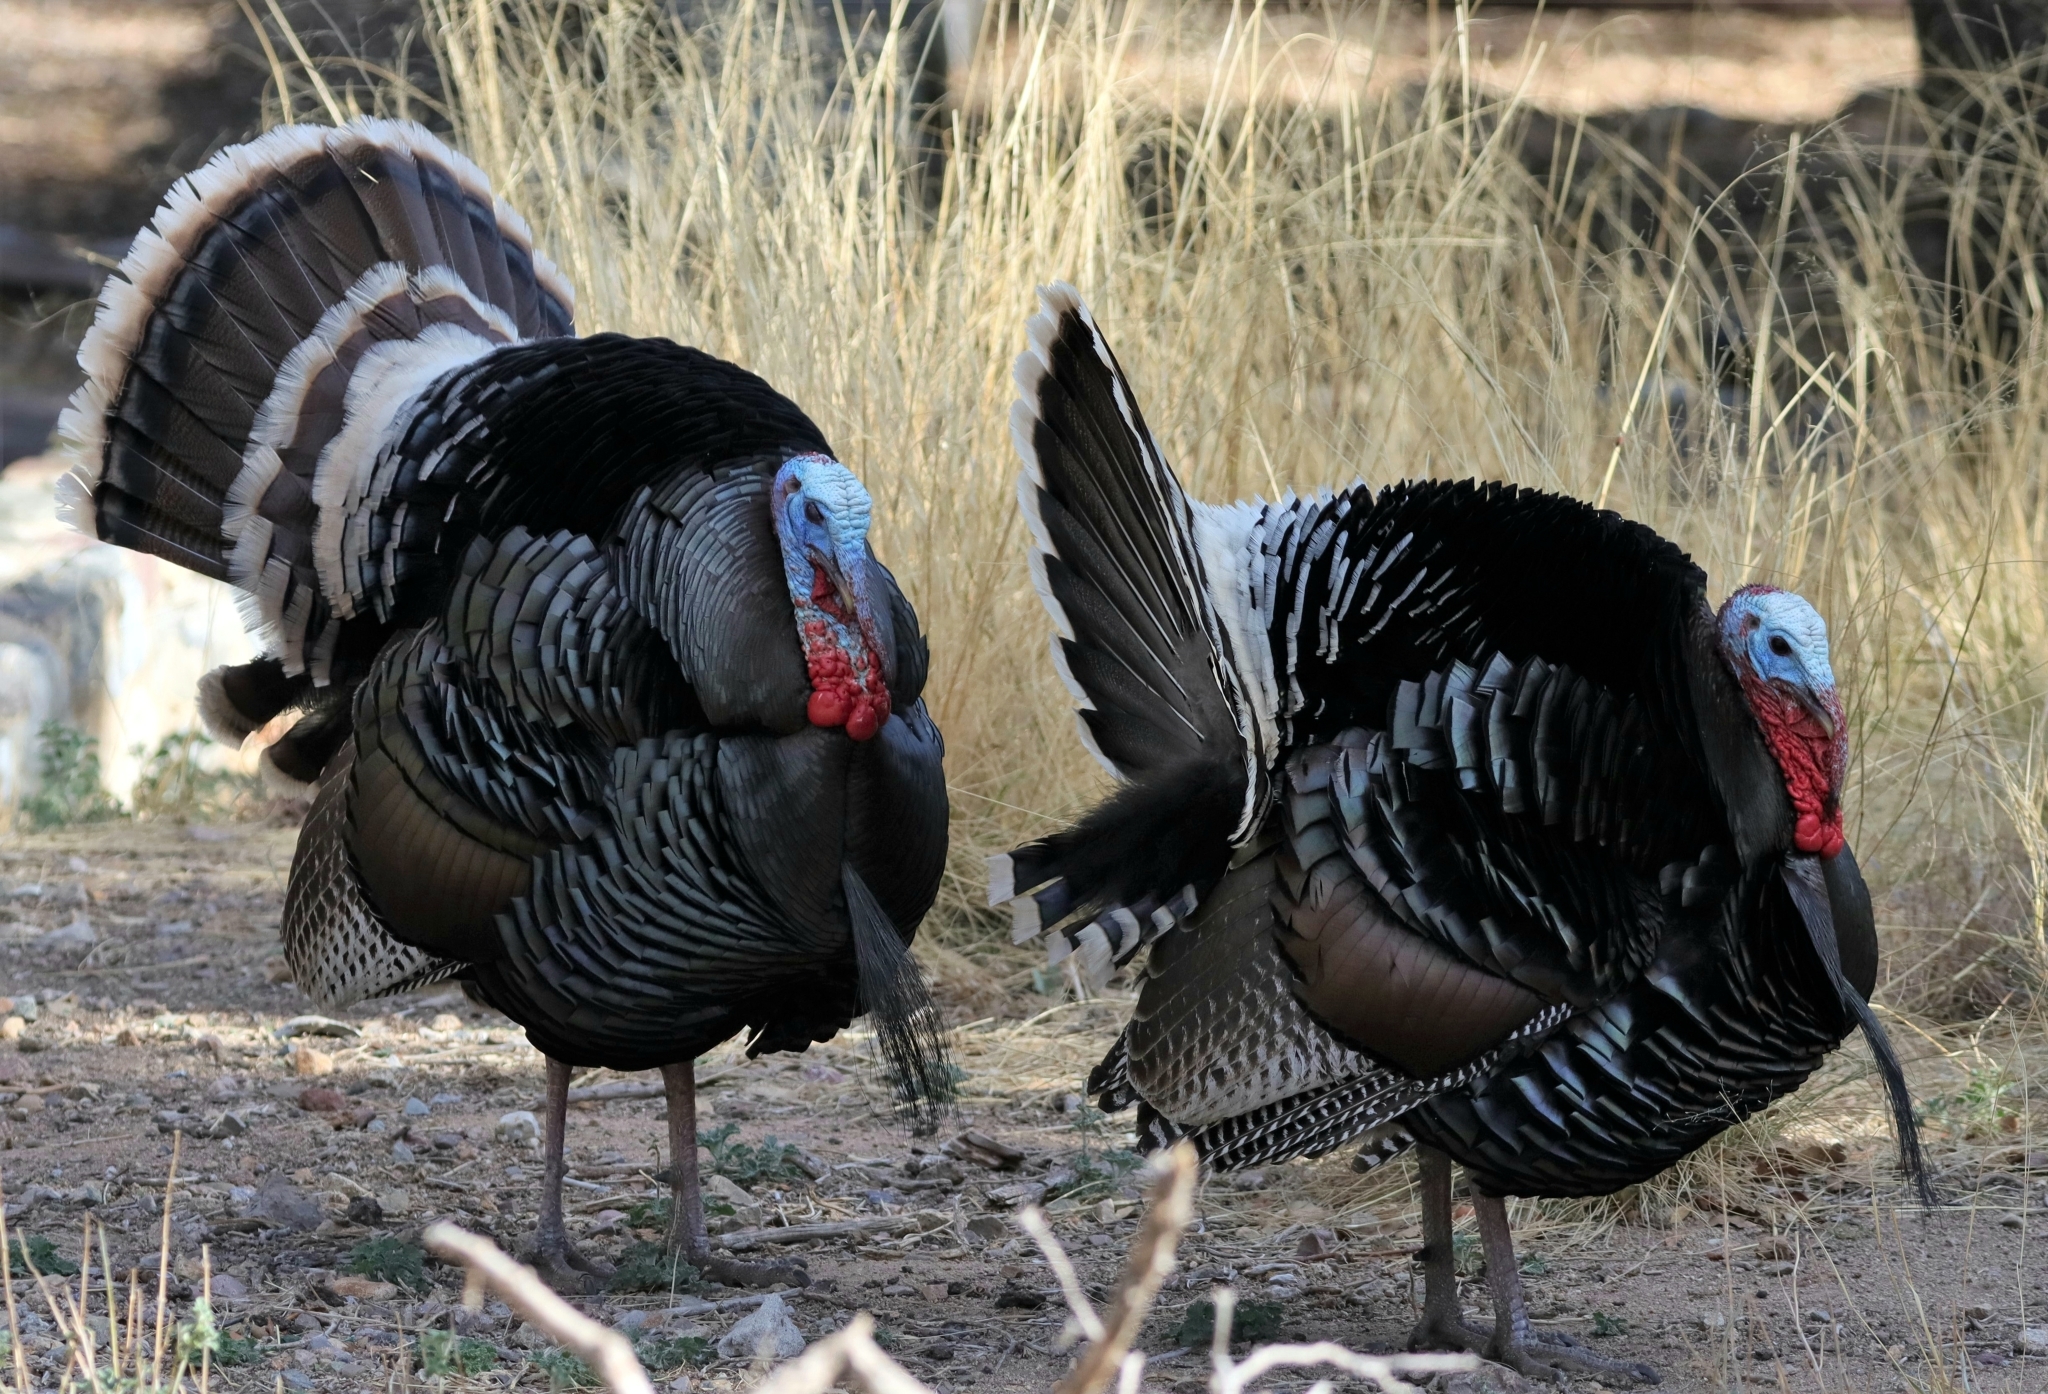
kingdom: Animalia
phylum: Chordata
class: Aves
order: Galliformes
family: Phasianidae
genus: Meleagris
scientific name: Meleagris gallopavo
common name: Wild turkey
